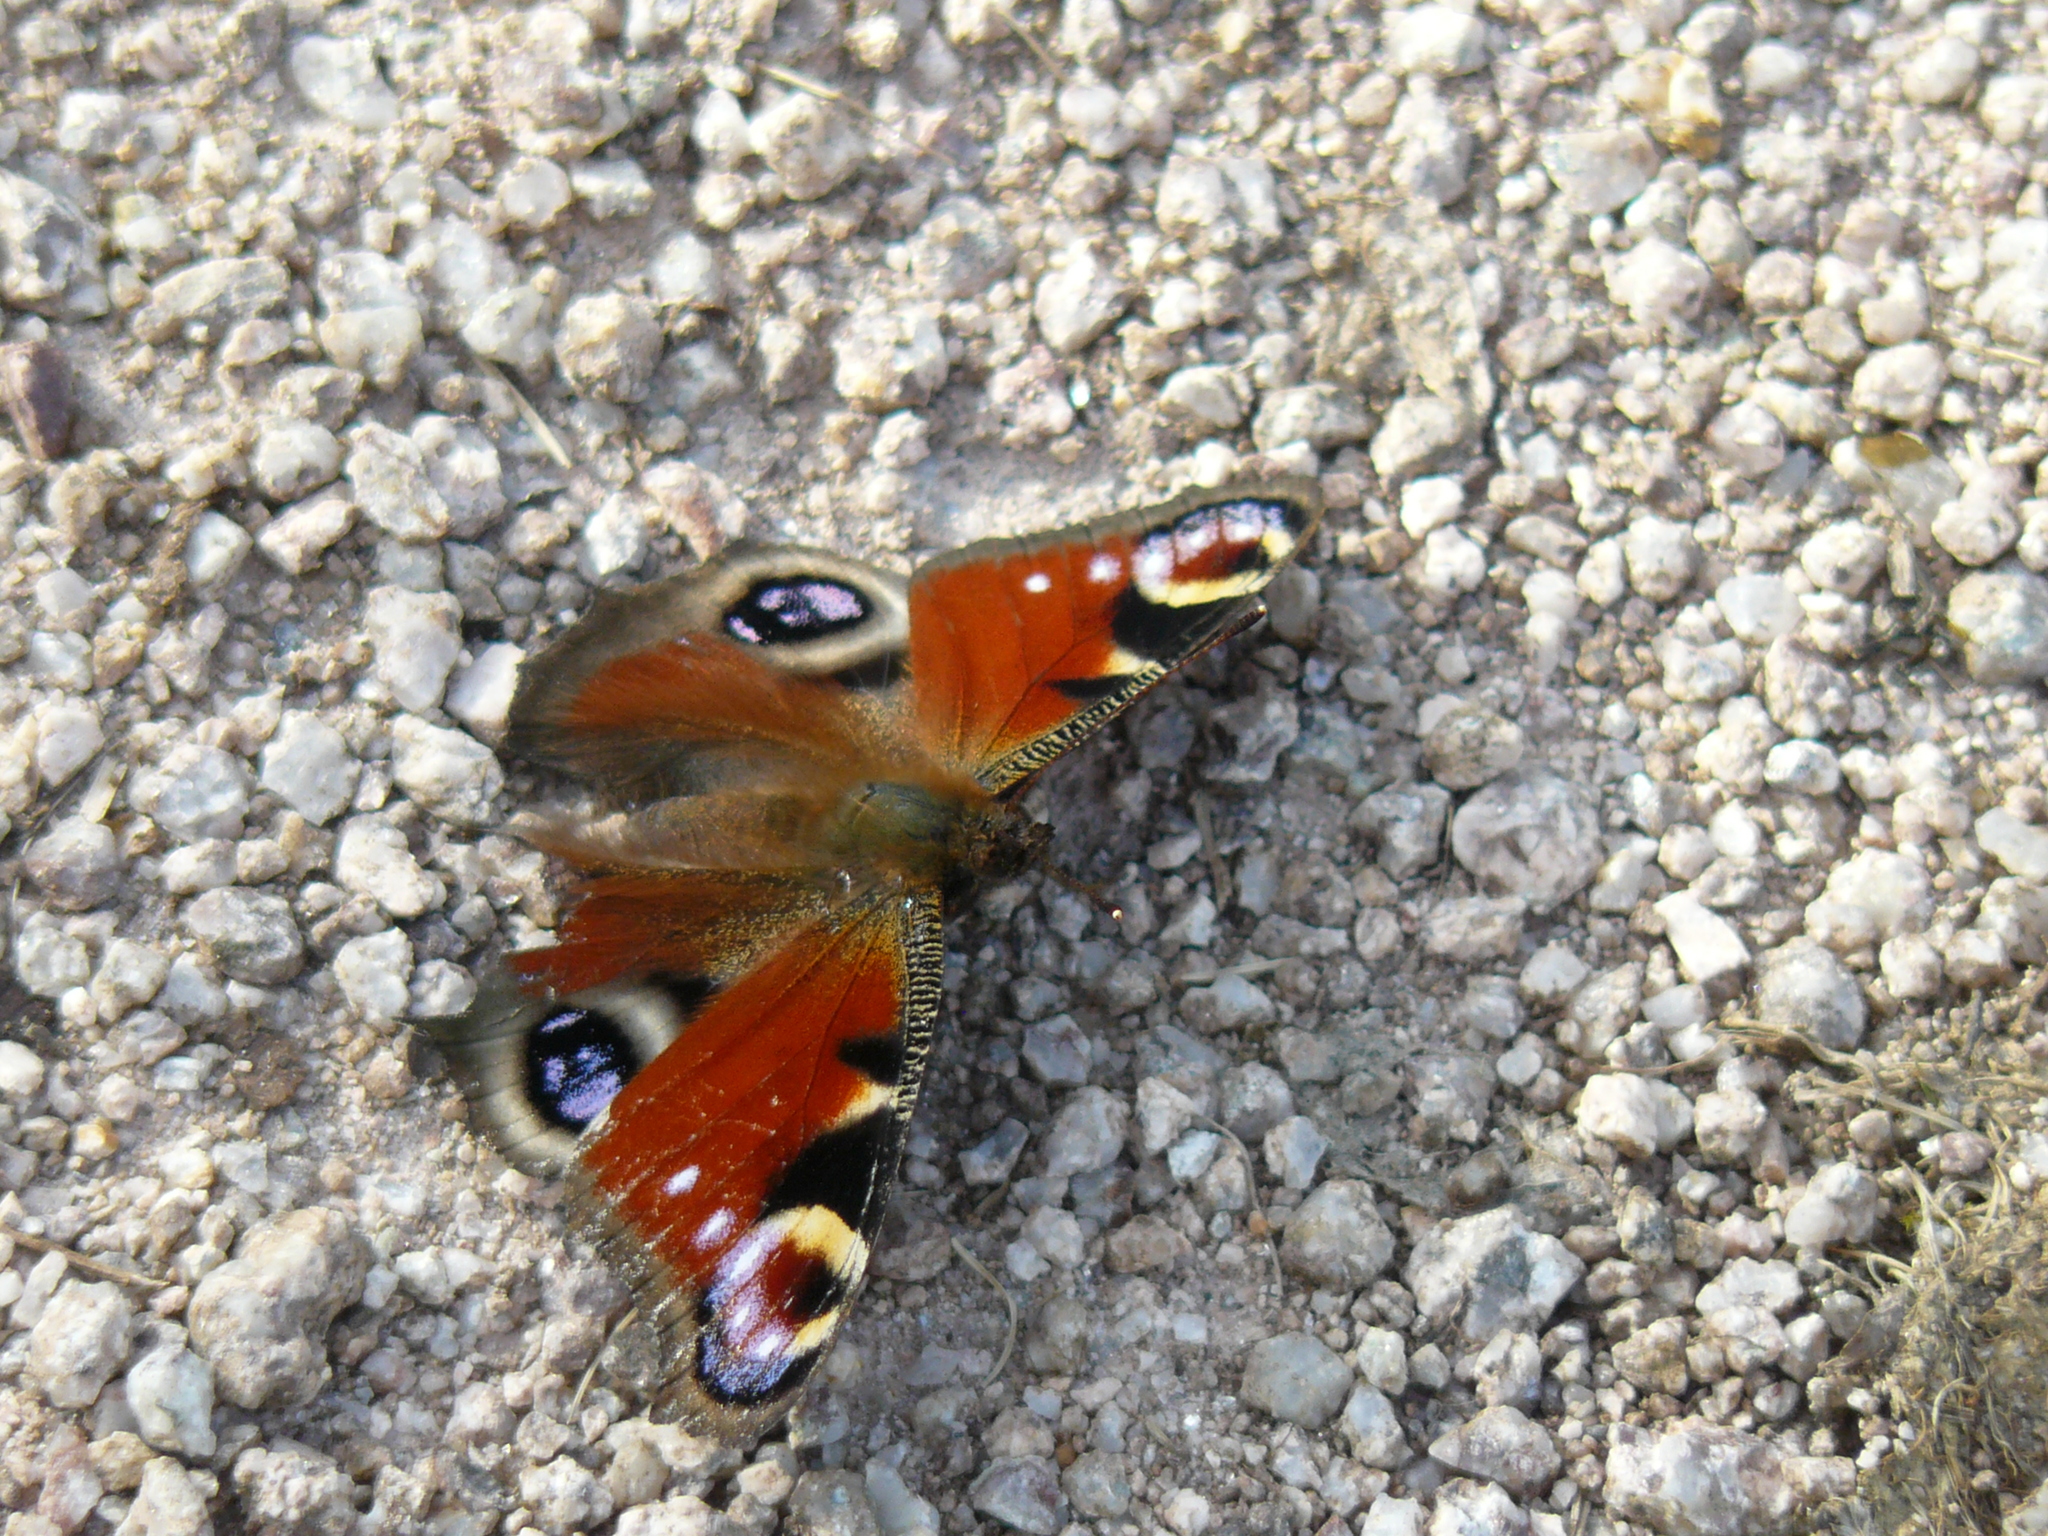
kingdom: Animalia
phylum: Arthropoda
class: Insecta
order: Lepidoptera
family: Nymphalidae
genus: Aglais
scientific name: Aglais io
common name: Peacock
